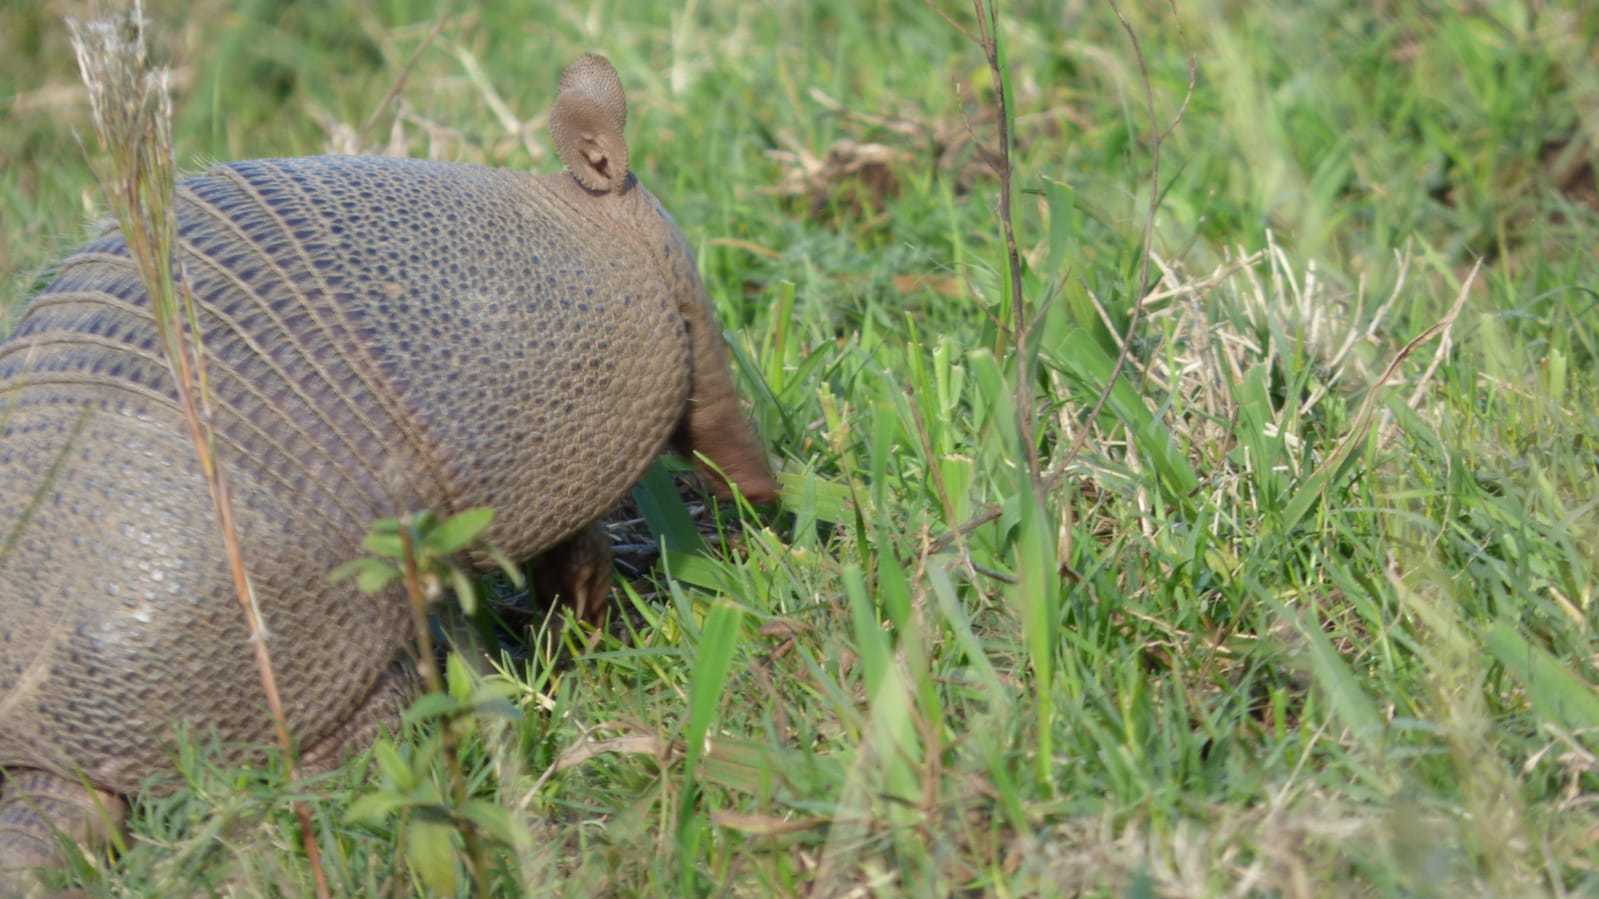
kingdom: Animalia
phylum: Chordata
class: Mammalia
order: Cingulata
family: Dasypodidae
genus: Dasypus
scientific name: Dasypus septemcinctus
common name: Seven-banded armadillo
